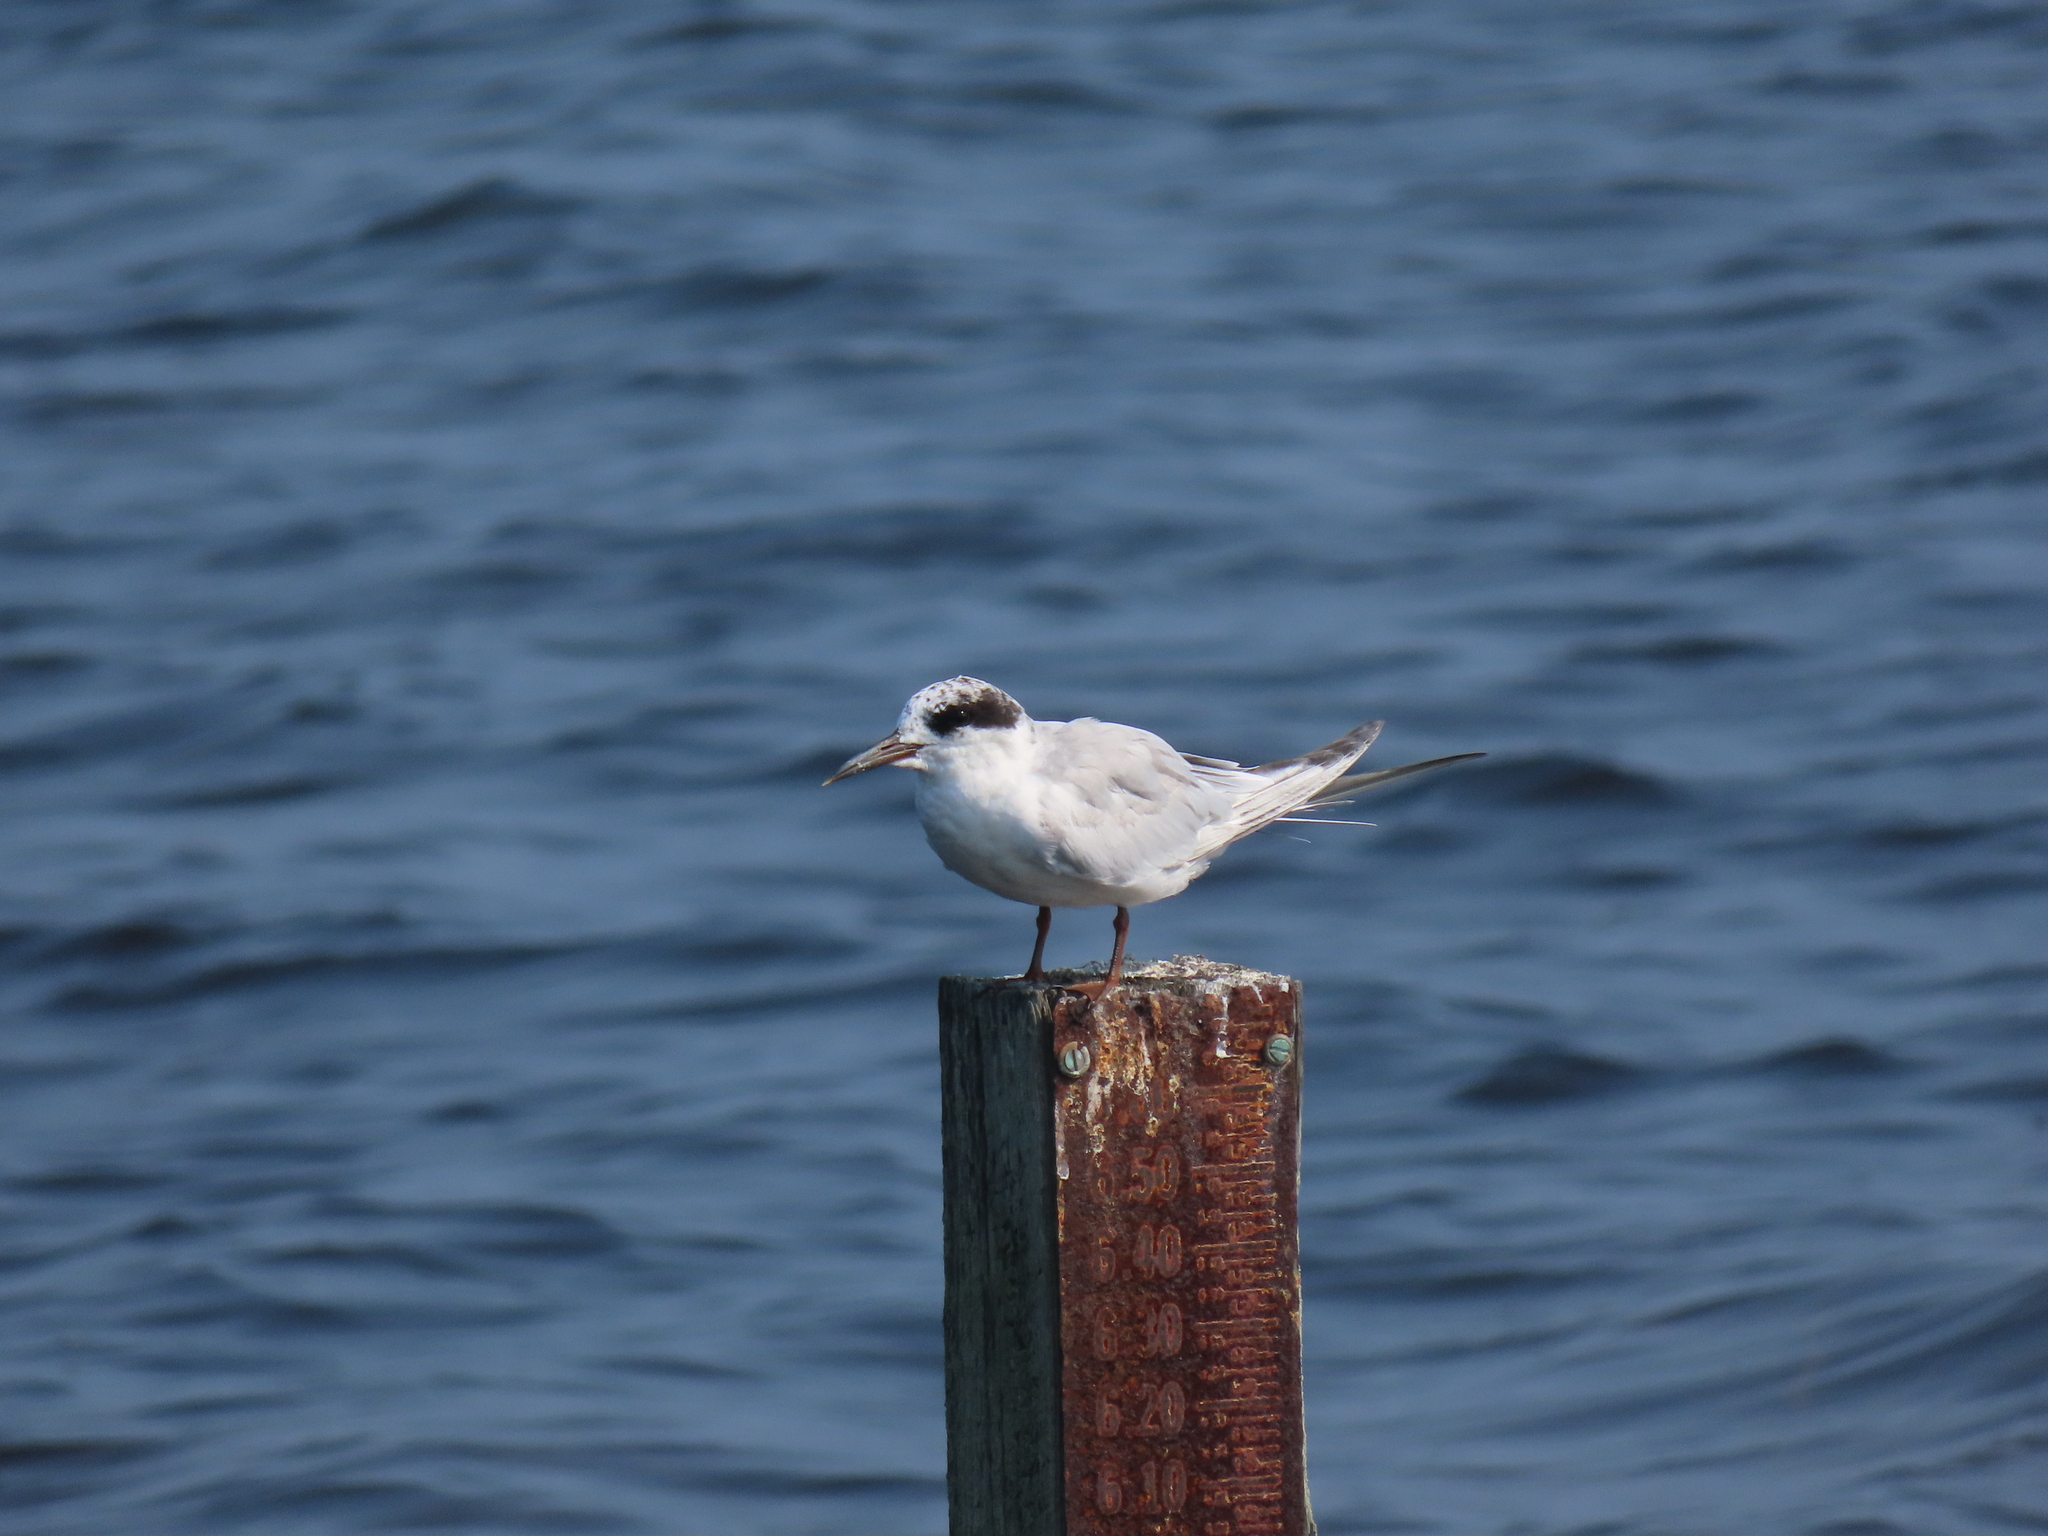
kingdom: Animalia
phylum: Chordata
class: Aves
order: Charadriiformes
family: Laridae
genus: Sterna
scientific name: Sterna forsteri
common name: Forster's tern
